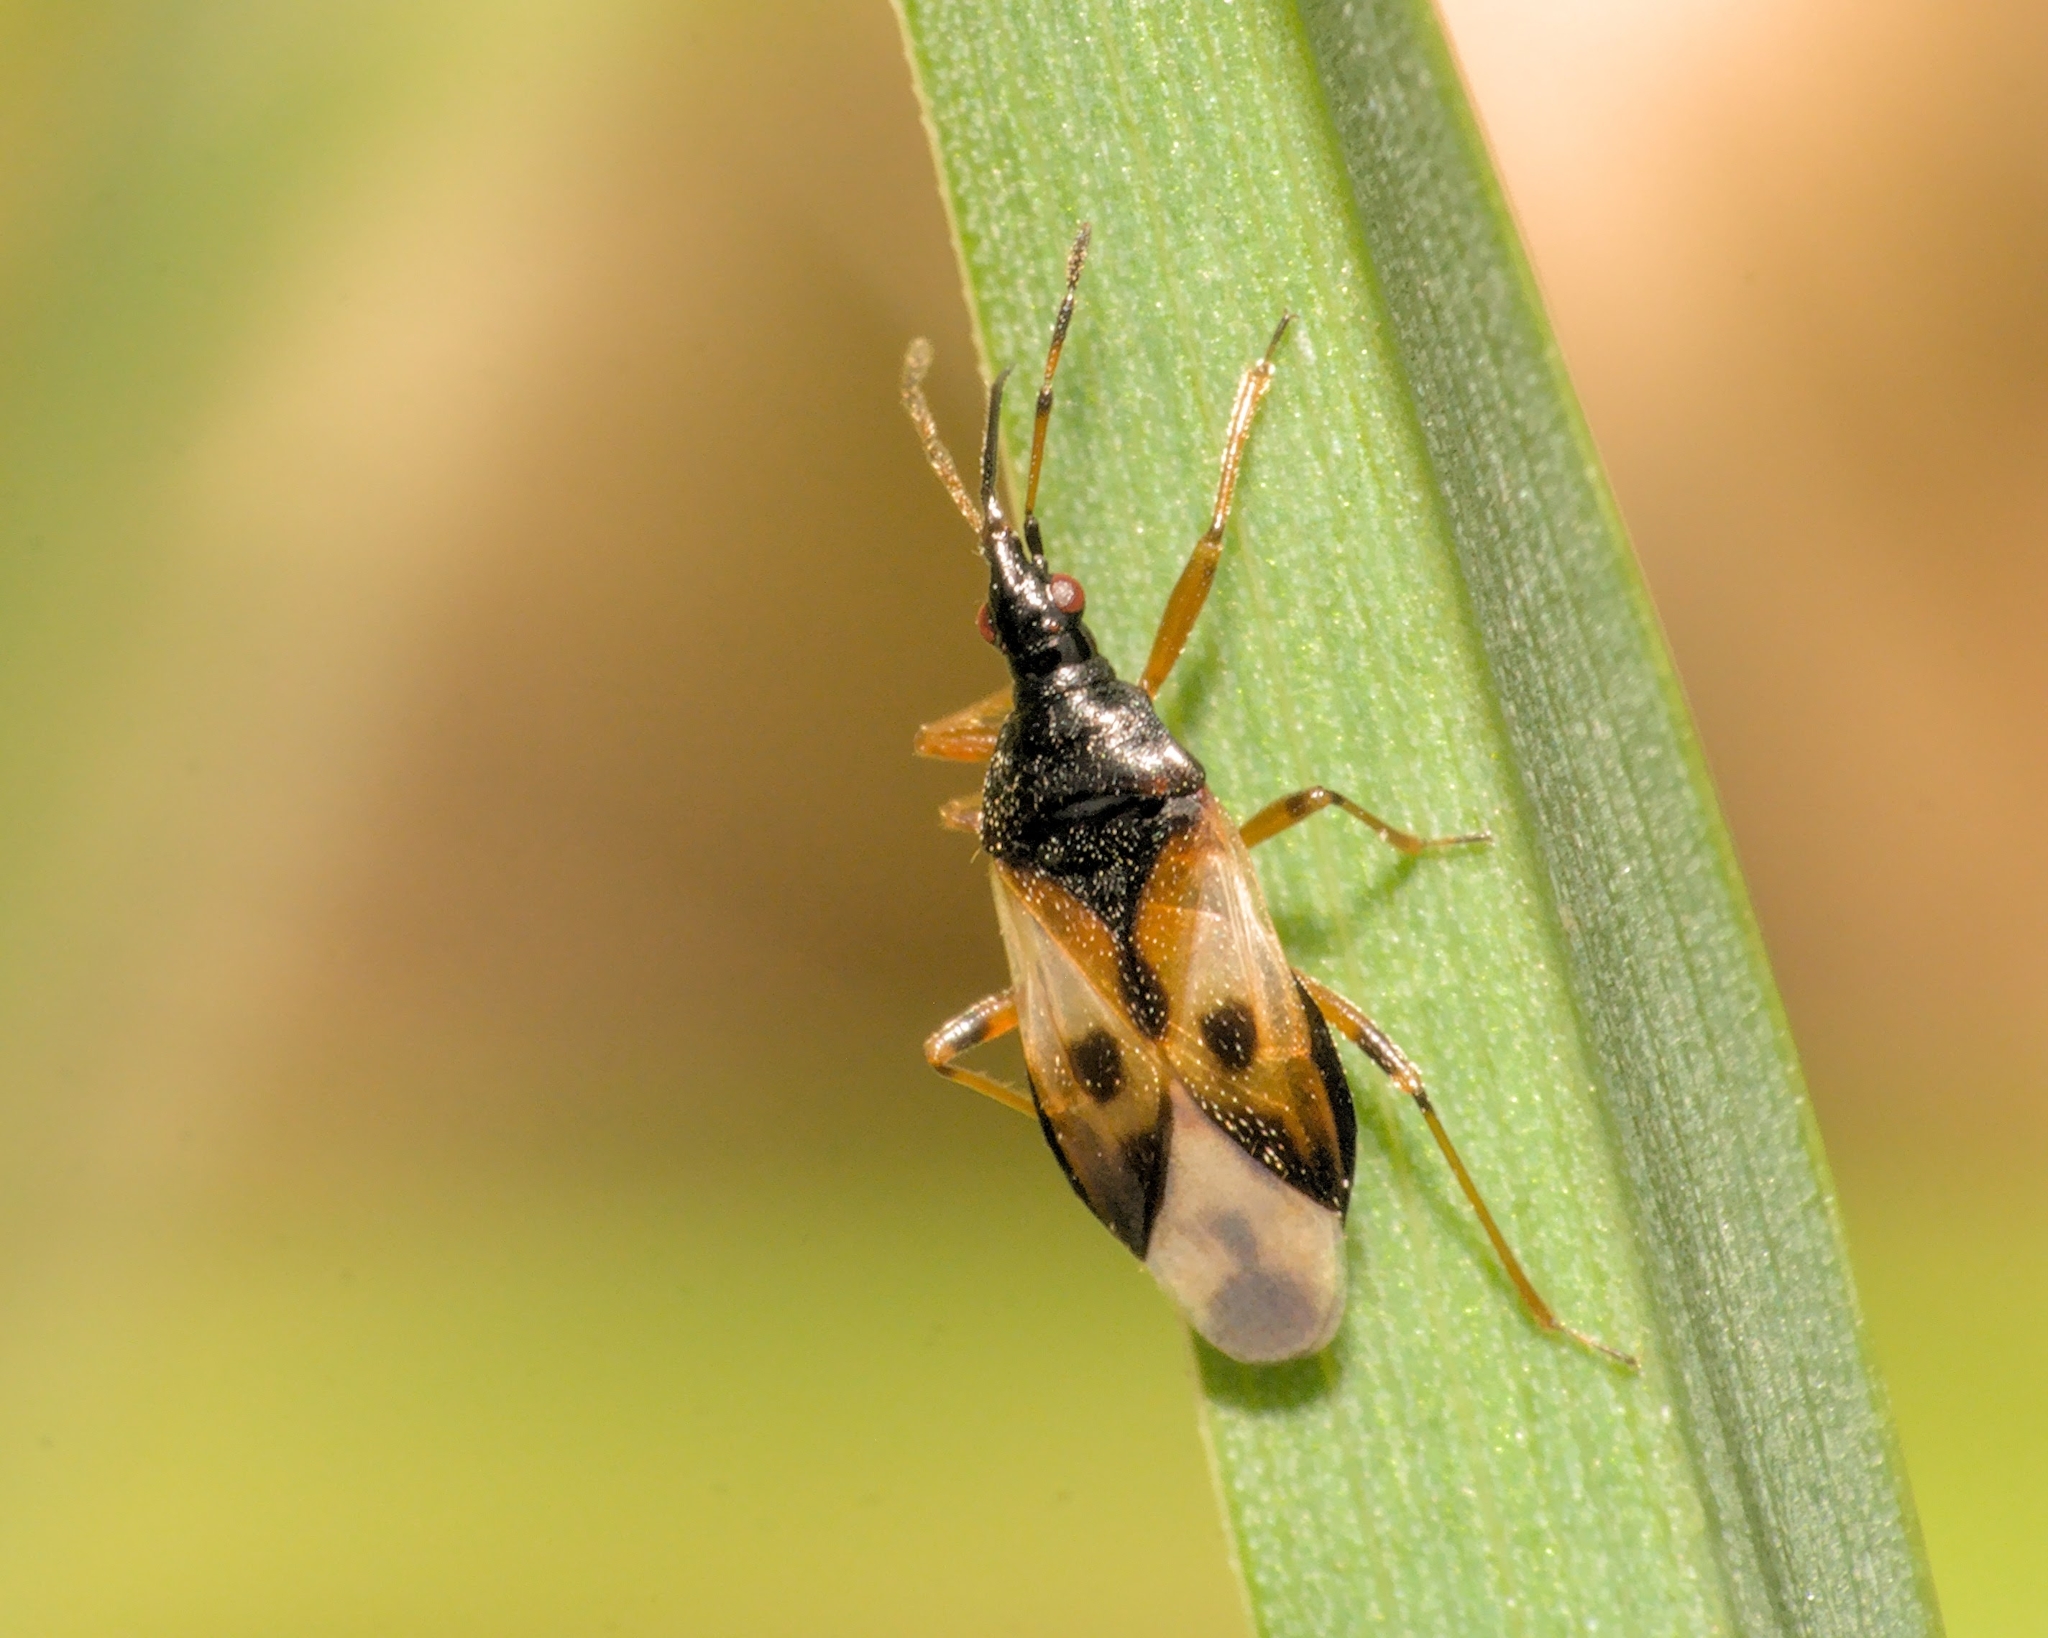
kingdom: Animalia
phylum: Arthropoda
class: Insecta
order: Hemiptera
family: Anthocoridae
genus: Anthocoris
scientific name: Anthocoris nemorum
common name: Minute pirate bug
